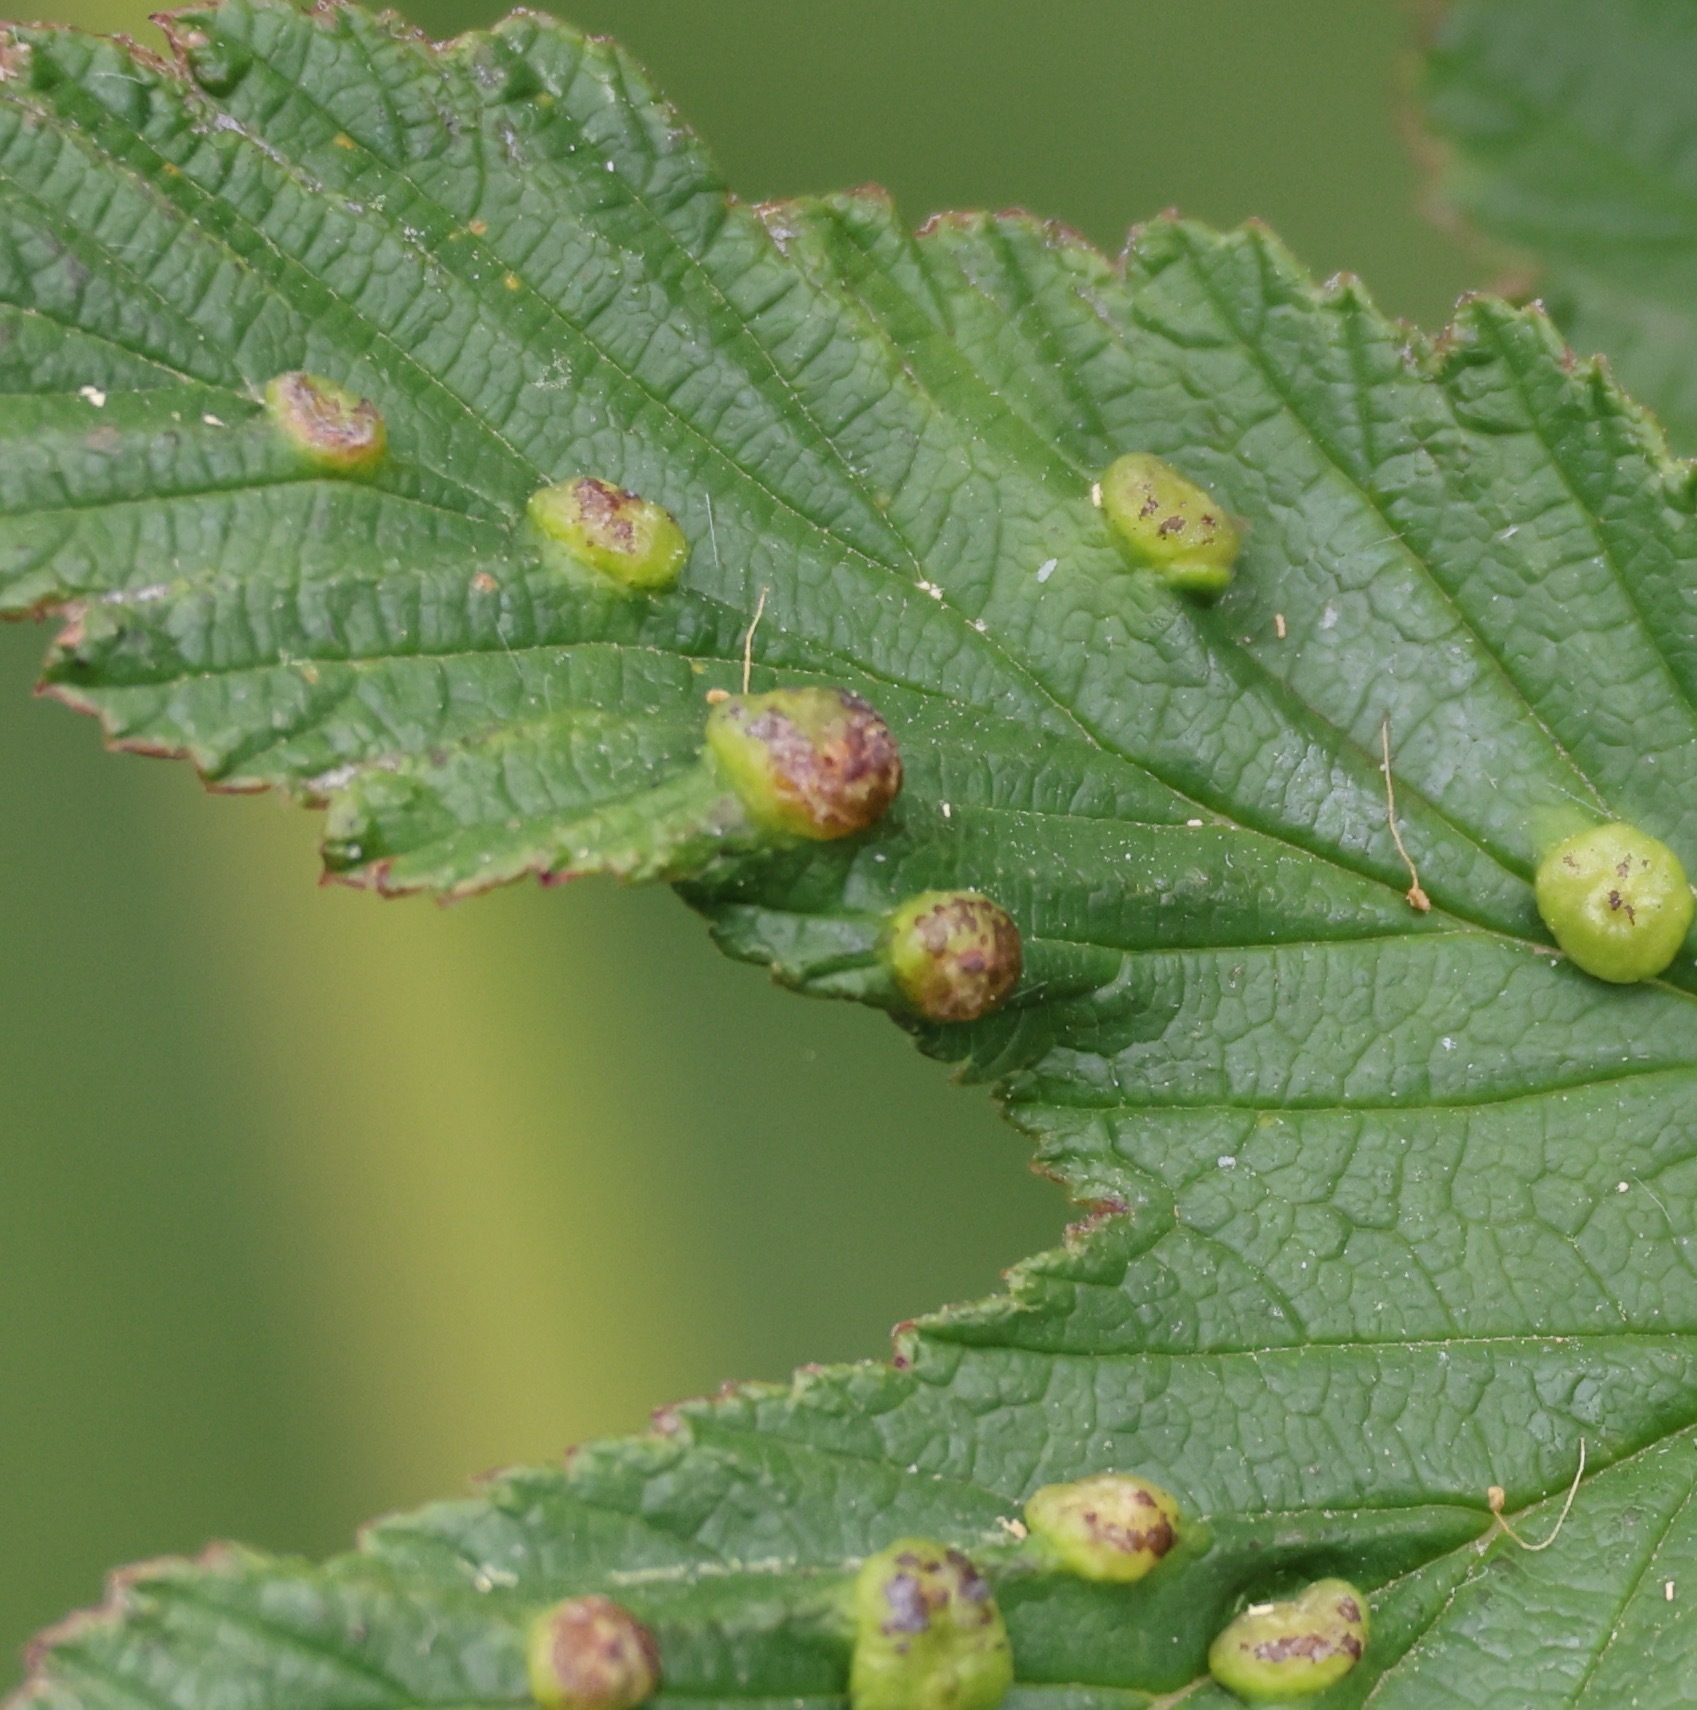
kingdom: Animalia
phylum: Arthropoda
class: Insecta
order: Diptera
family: Cecidomyiidae
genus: Dasineura
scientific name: Dasineura ulmaria
